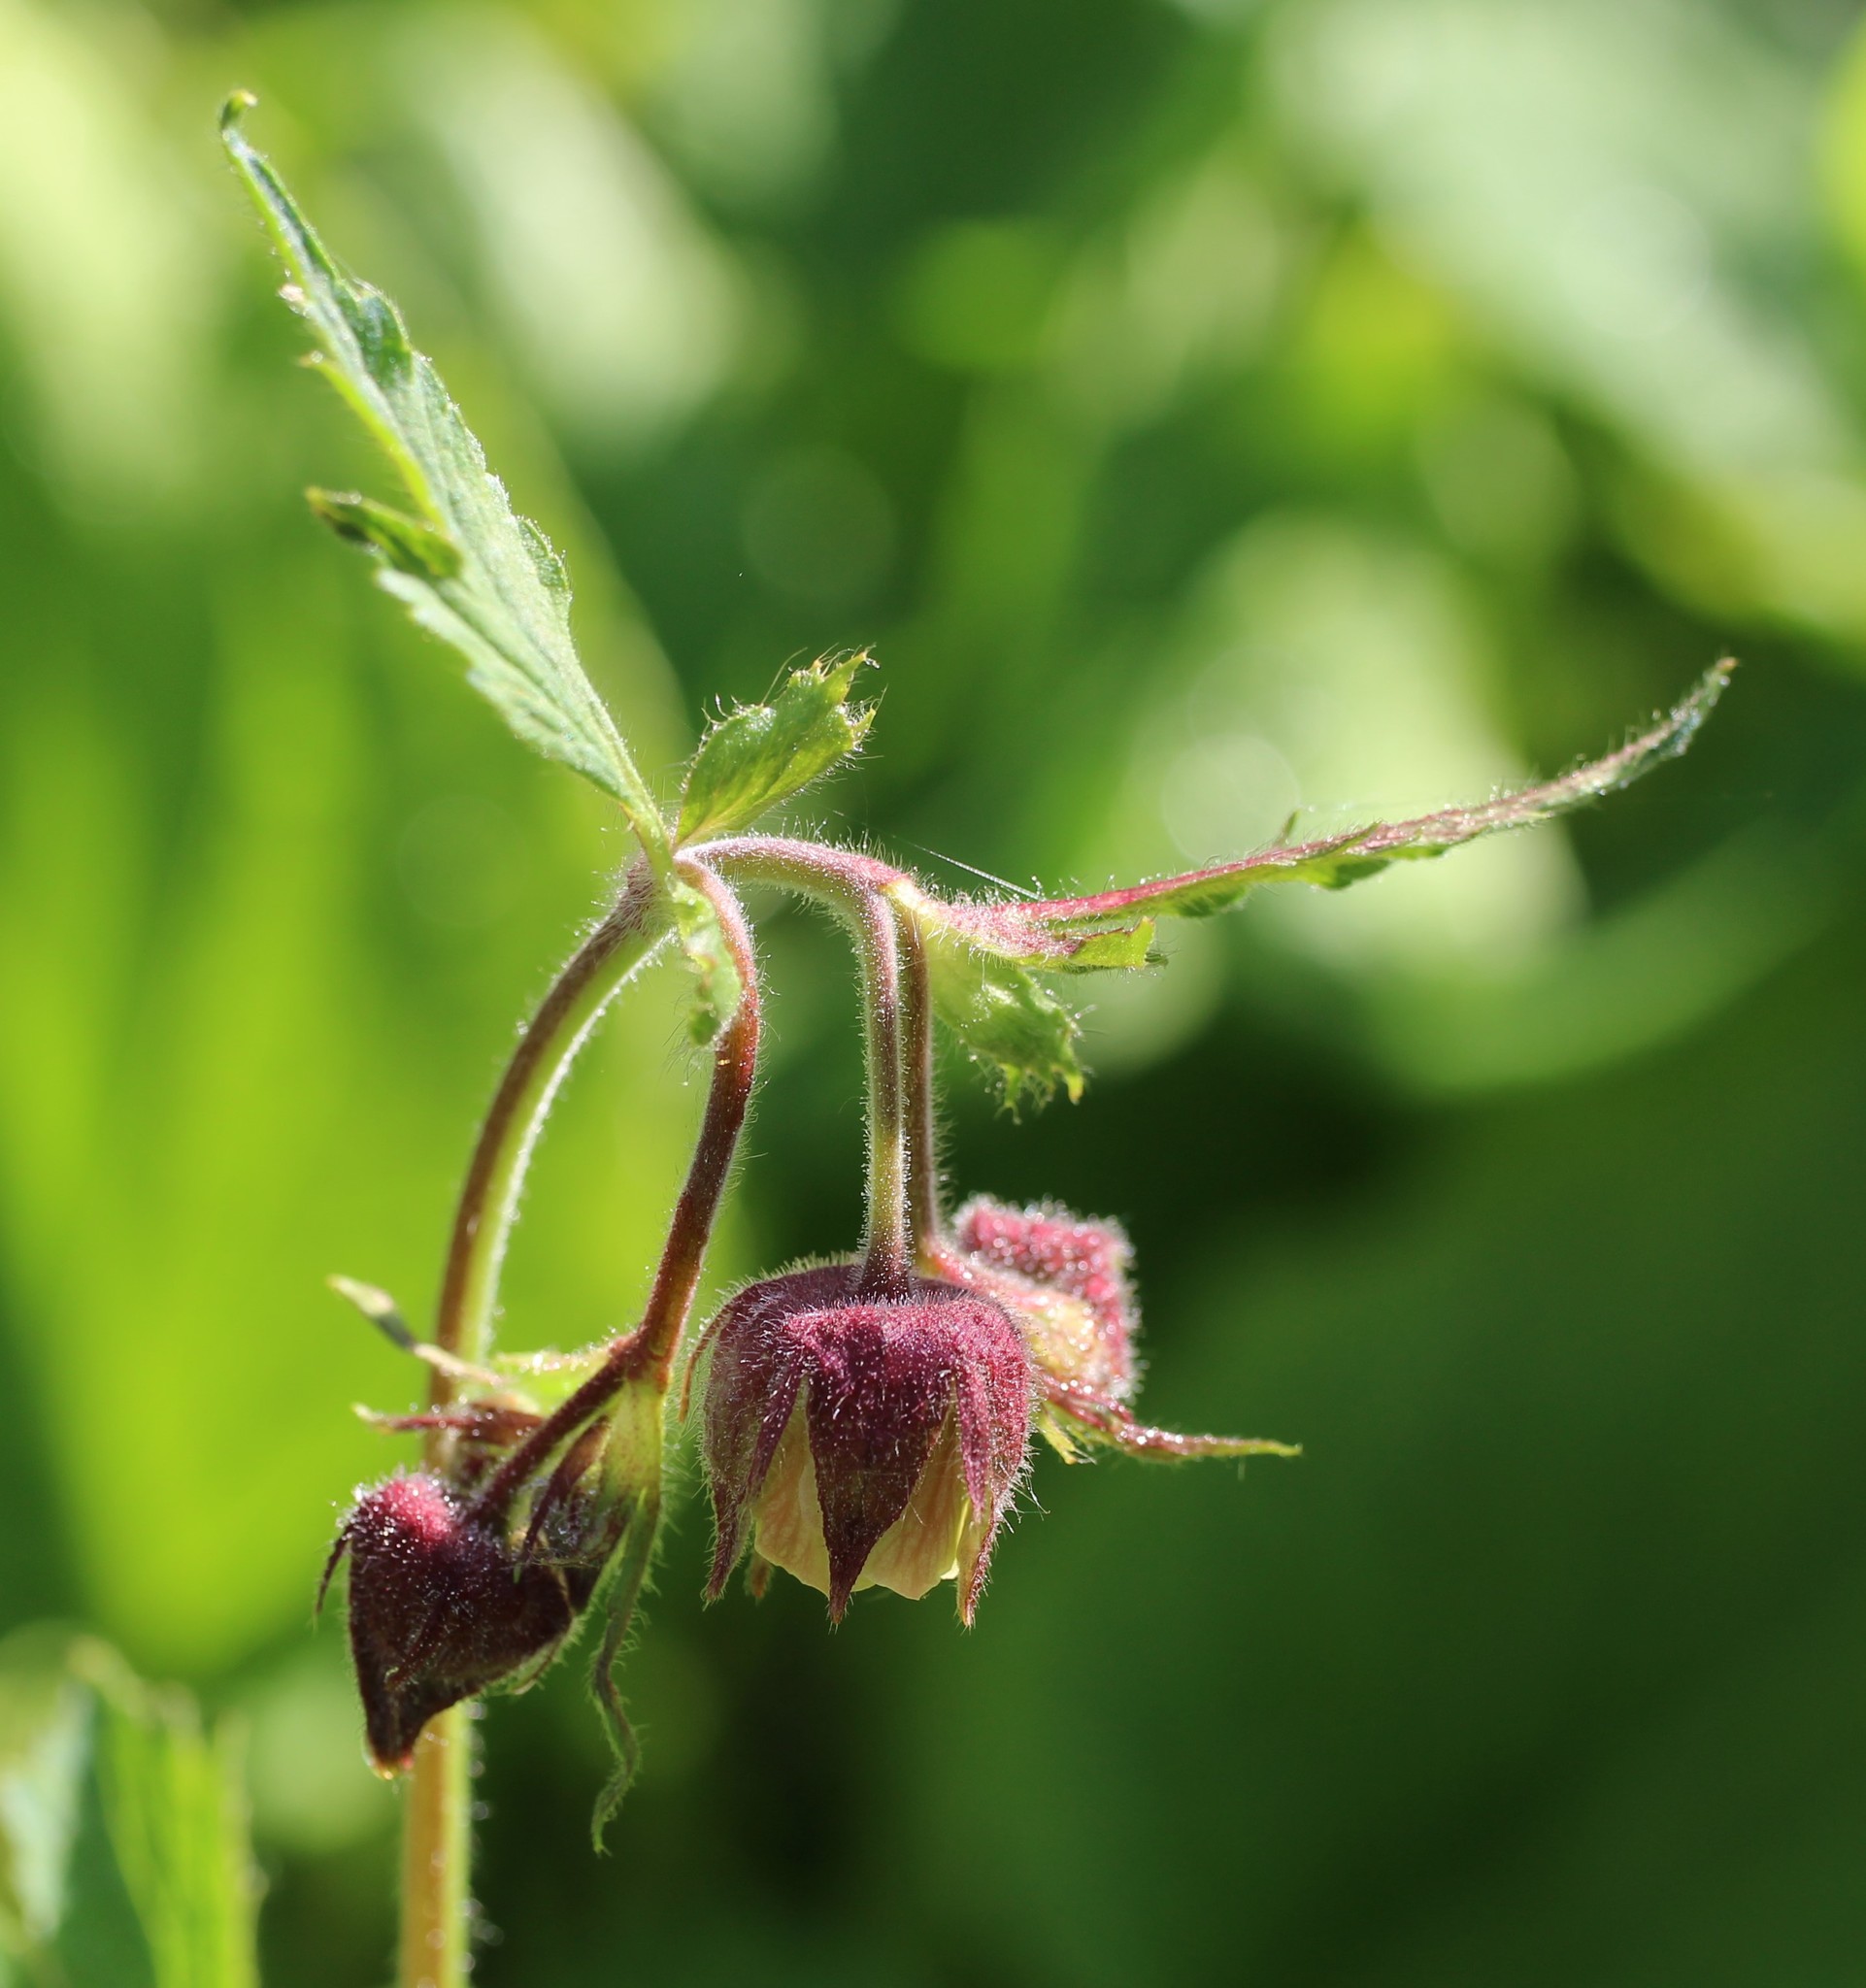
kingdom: Plantae
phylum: Tracheophyta
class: Magnoliopsida
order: Rosales
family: Rosaceae
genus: Geum
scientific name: Geum rivale
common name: Water avens
